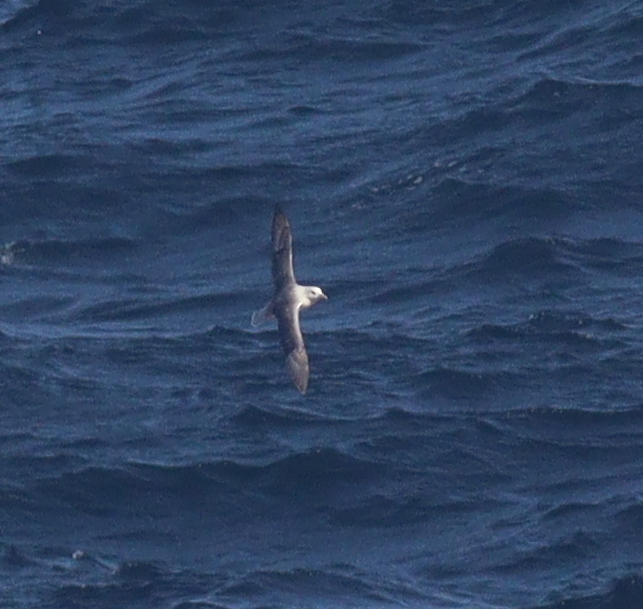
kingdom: Animalia
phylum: Chordata
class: Aves
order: Procellariiformes
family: Procellariidae
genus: Fulmarus
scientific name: Fulmarus glacialis
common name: Northern fulmar
